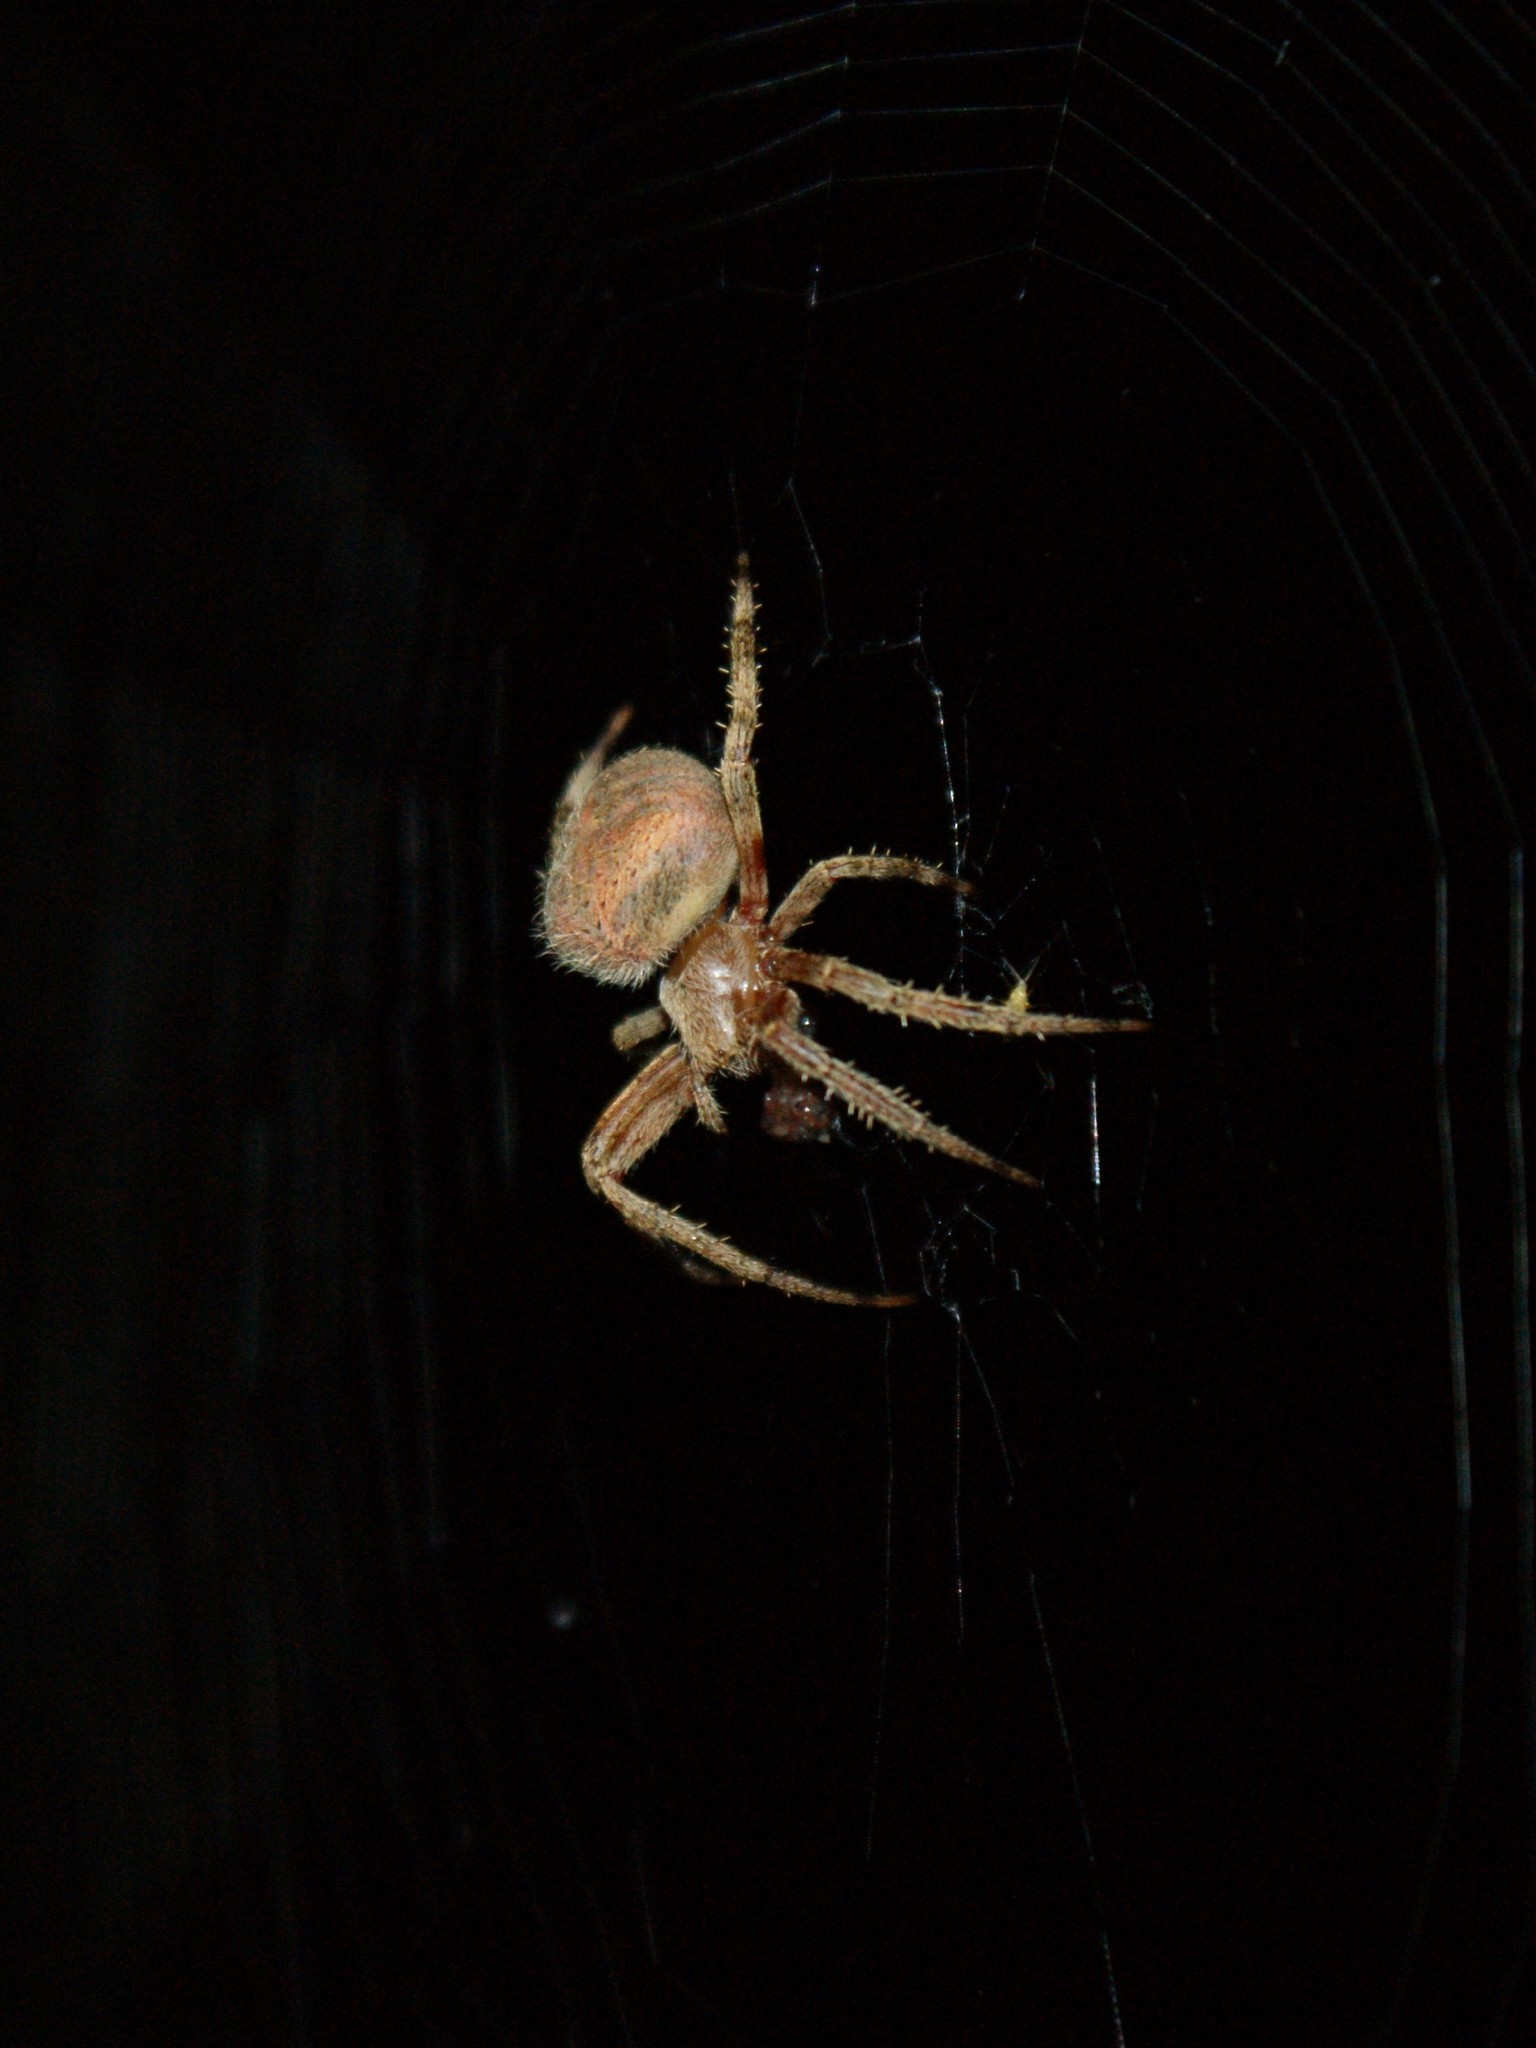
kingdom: Animalia
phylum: Arthropoda
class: Arachnida
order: Araneae
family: Araneidae
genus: Neoscona
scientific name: Neoscona domiciliorum
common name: Red-femured spotted orbweaver
